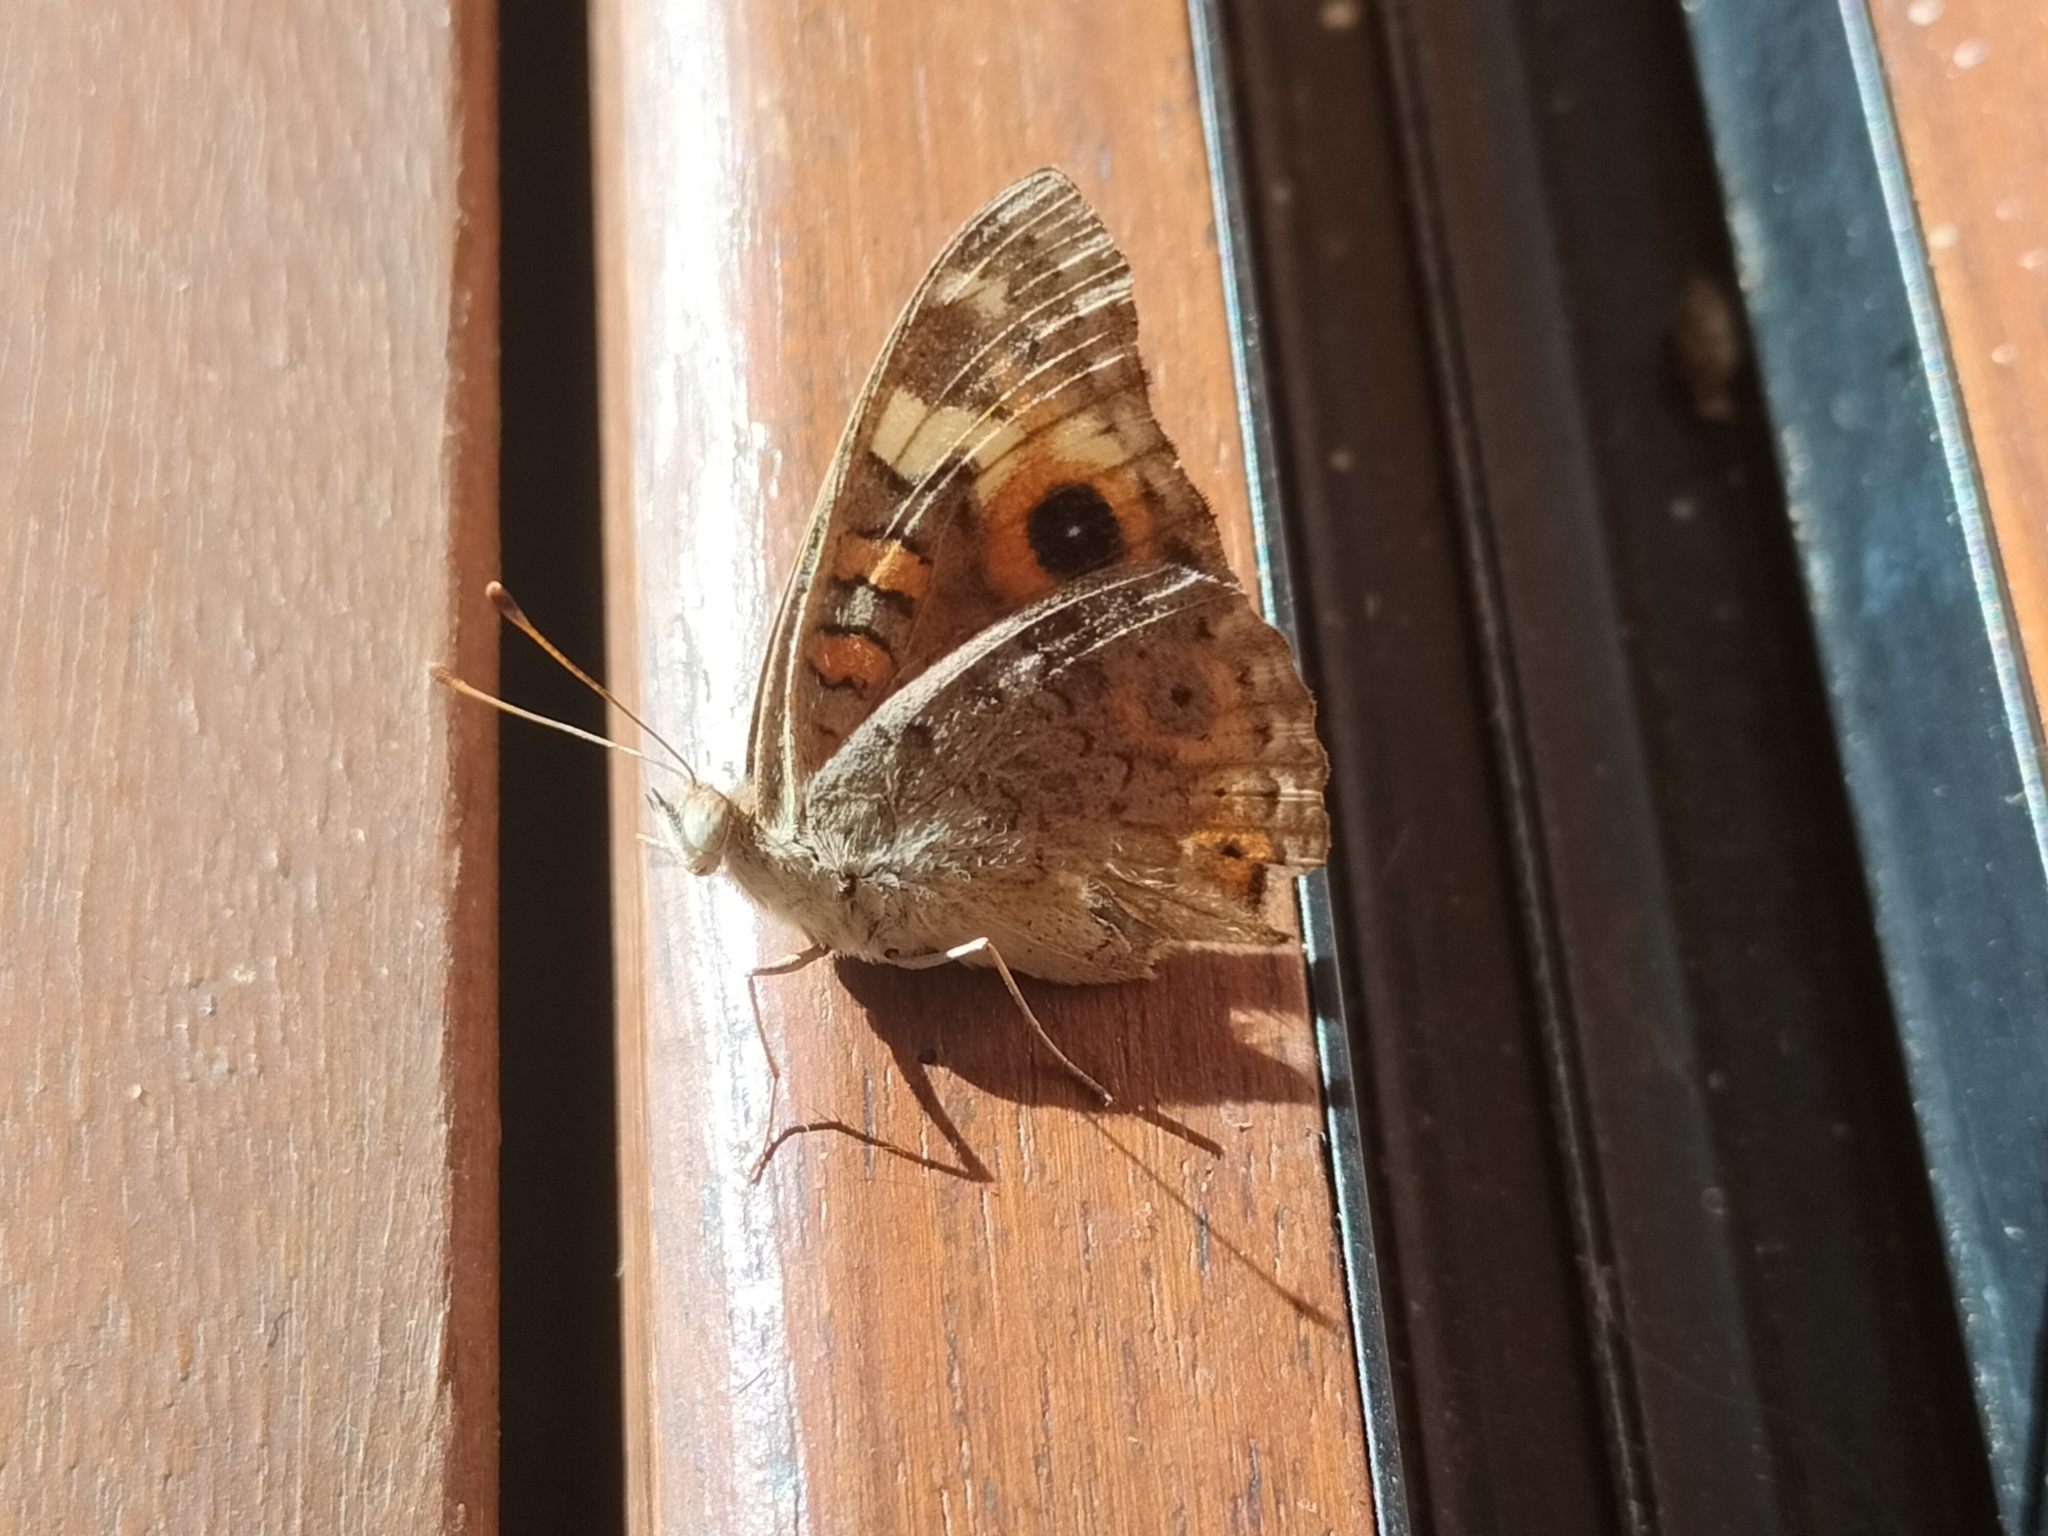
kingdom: Animalia
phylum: Arthropoda
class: Insecta
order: Lepidoptera
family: Nymphalidae
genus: Junonia
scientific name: Junonia villida
